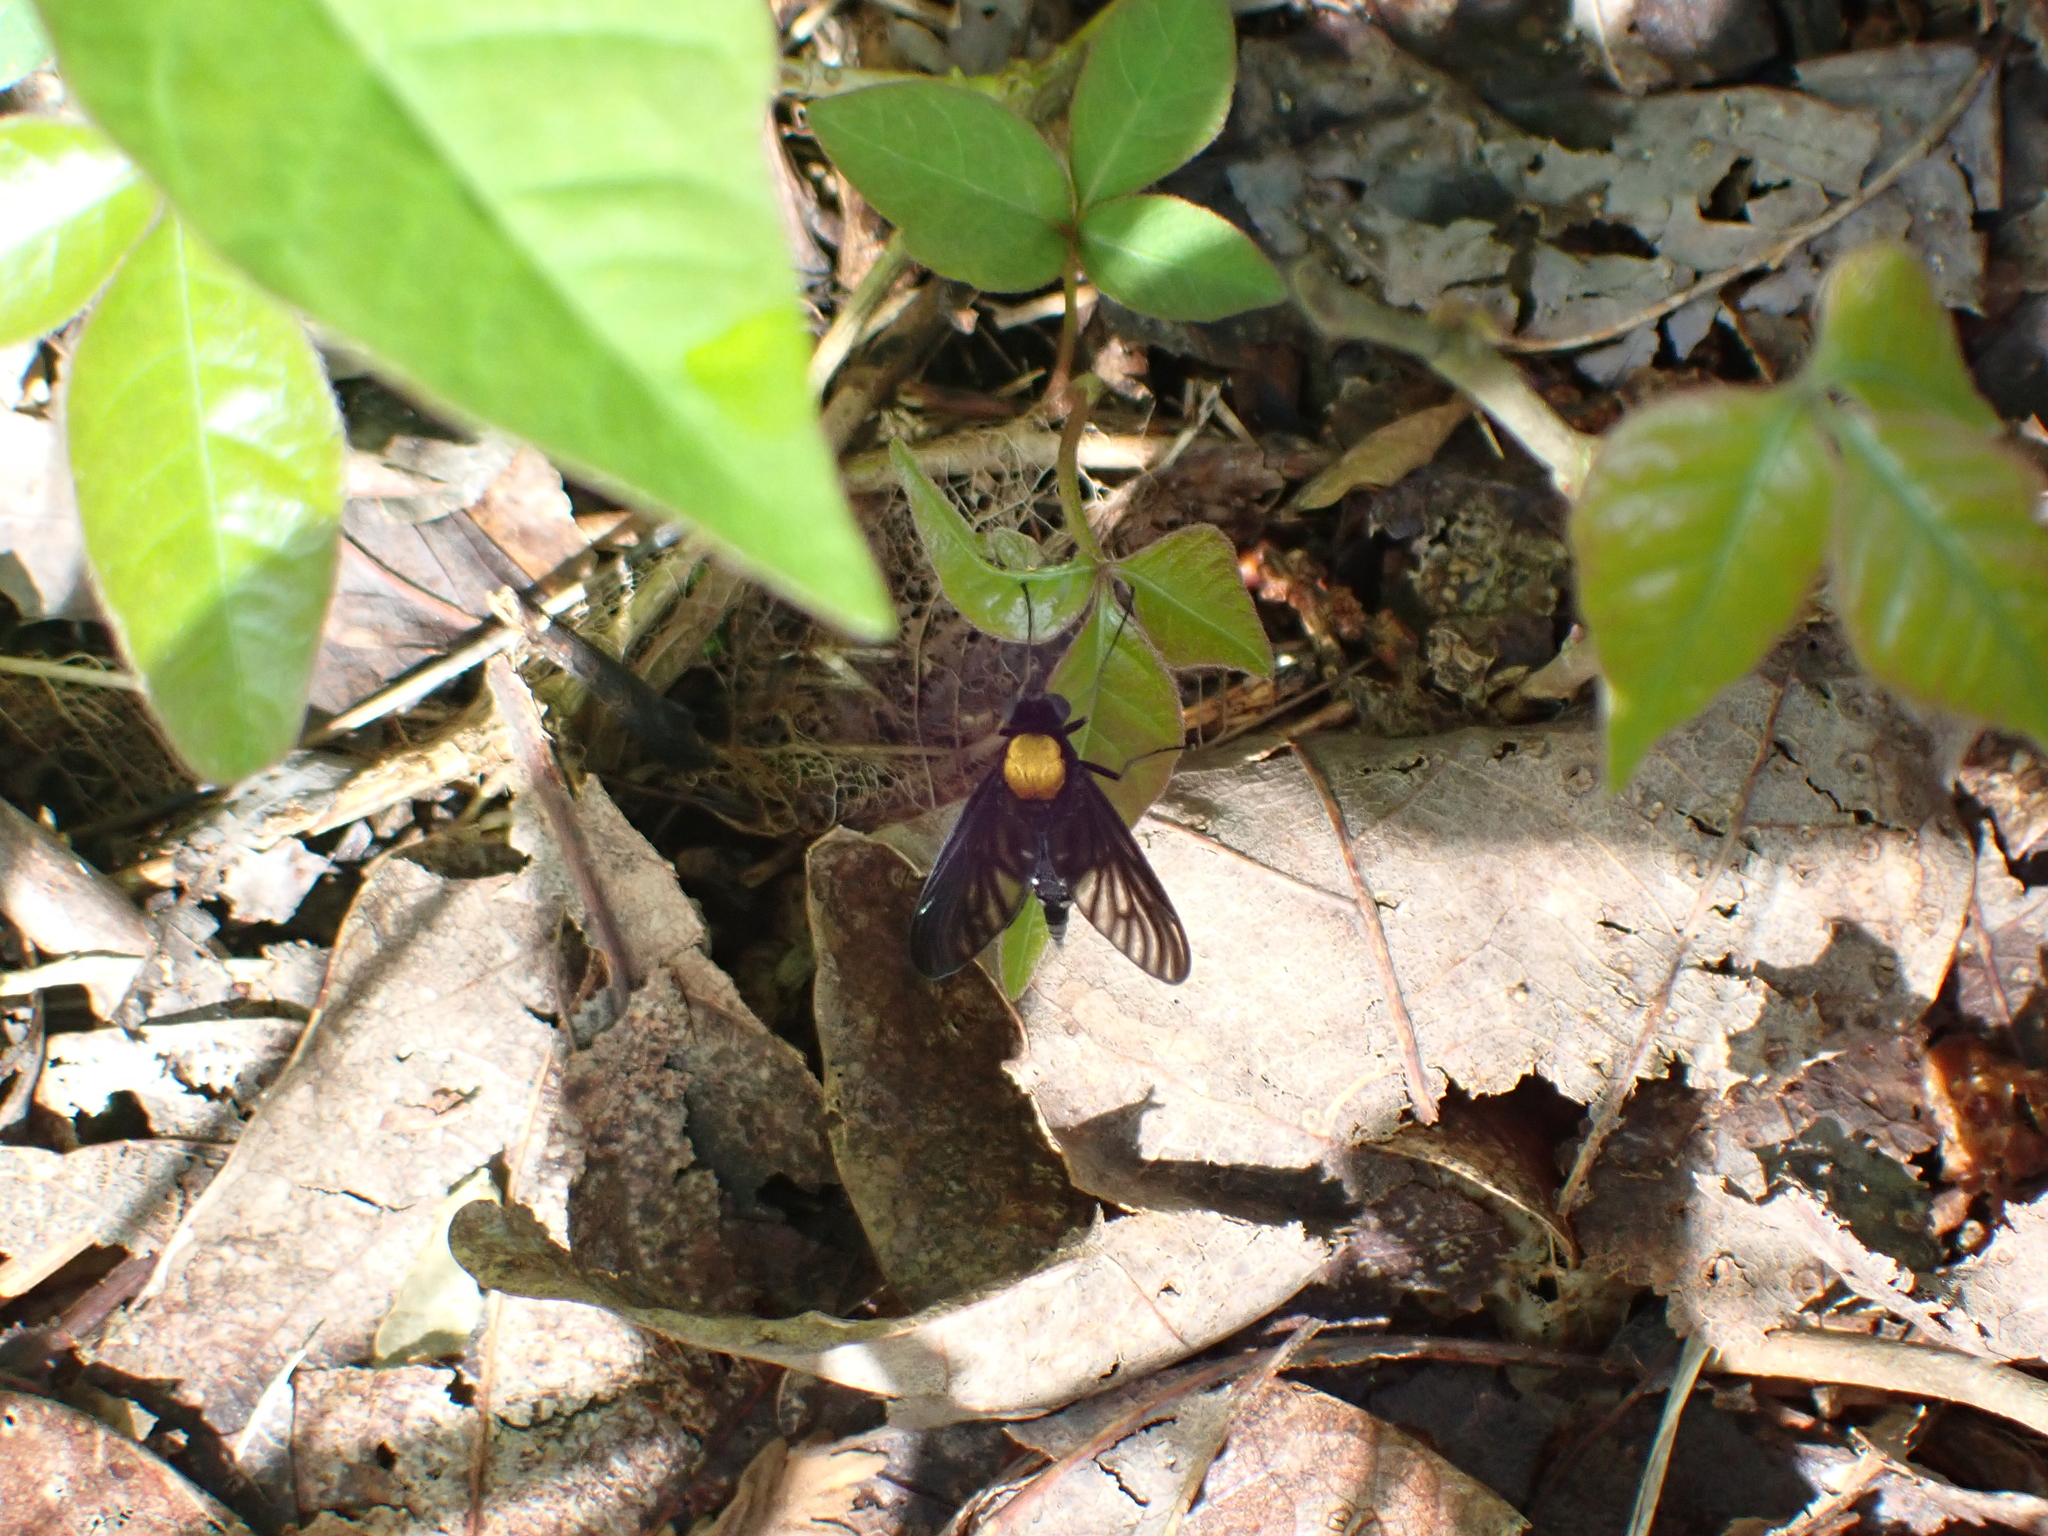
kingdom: Animalia
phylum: Arthropoda
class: Insecta
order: Diptera
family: Rhagionidae
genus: Chrysopilus
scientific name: Chrysopilus thoracicus
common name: Golden-backed snipe fly
